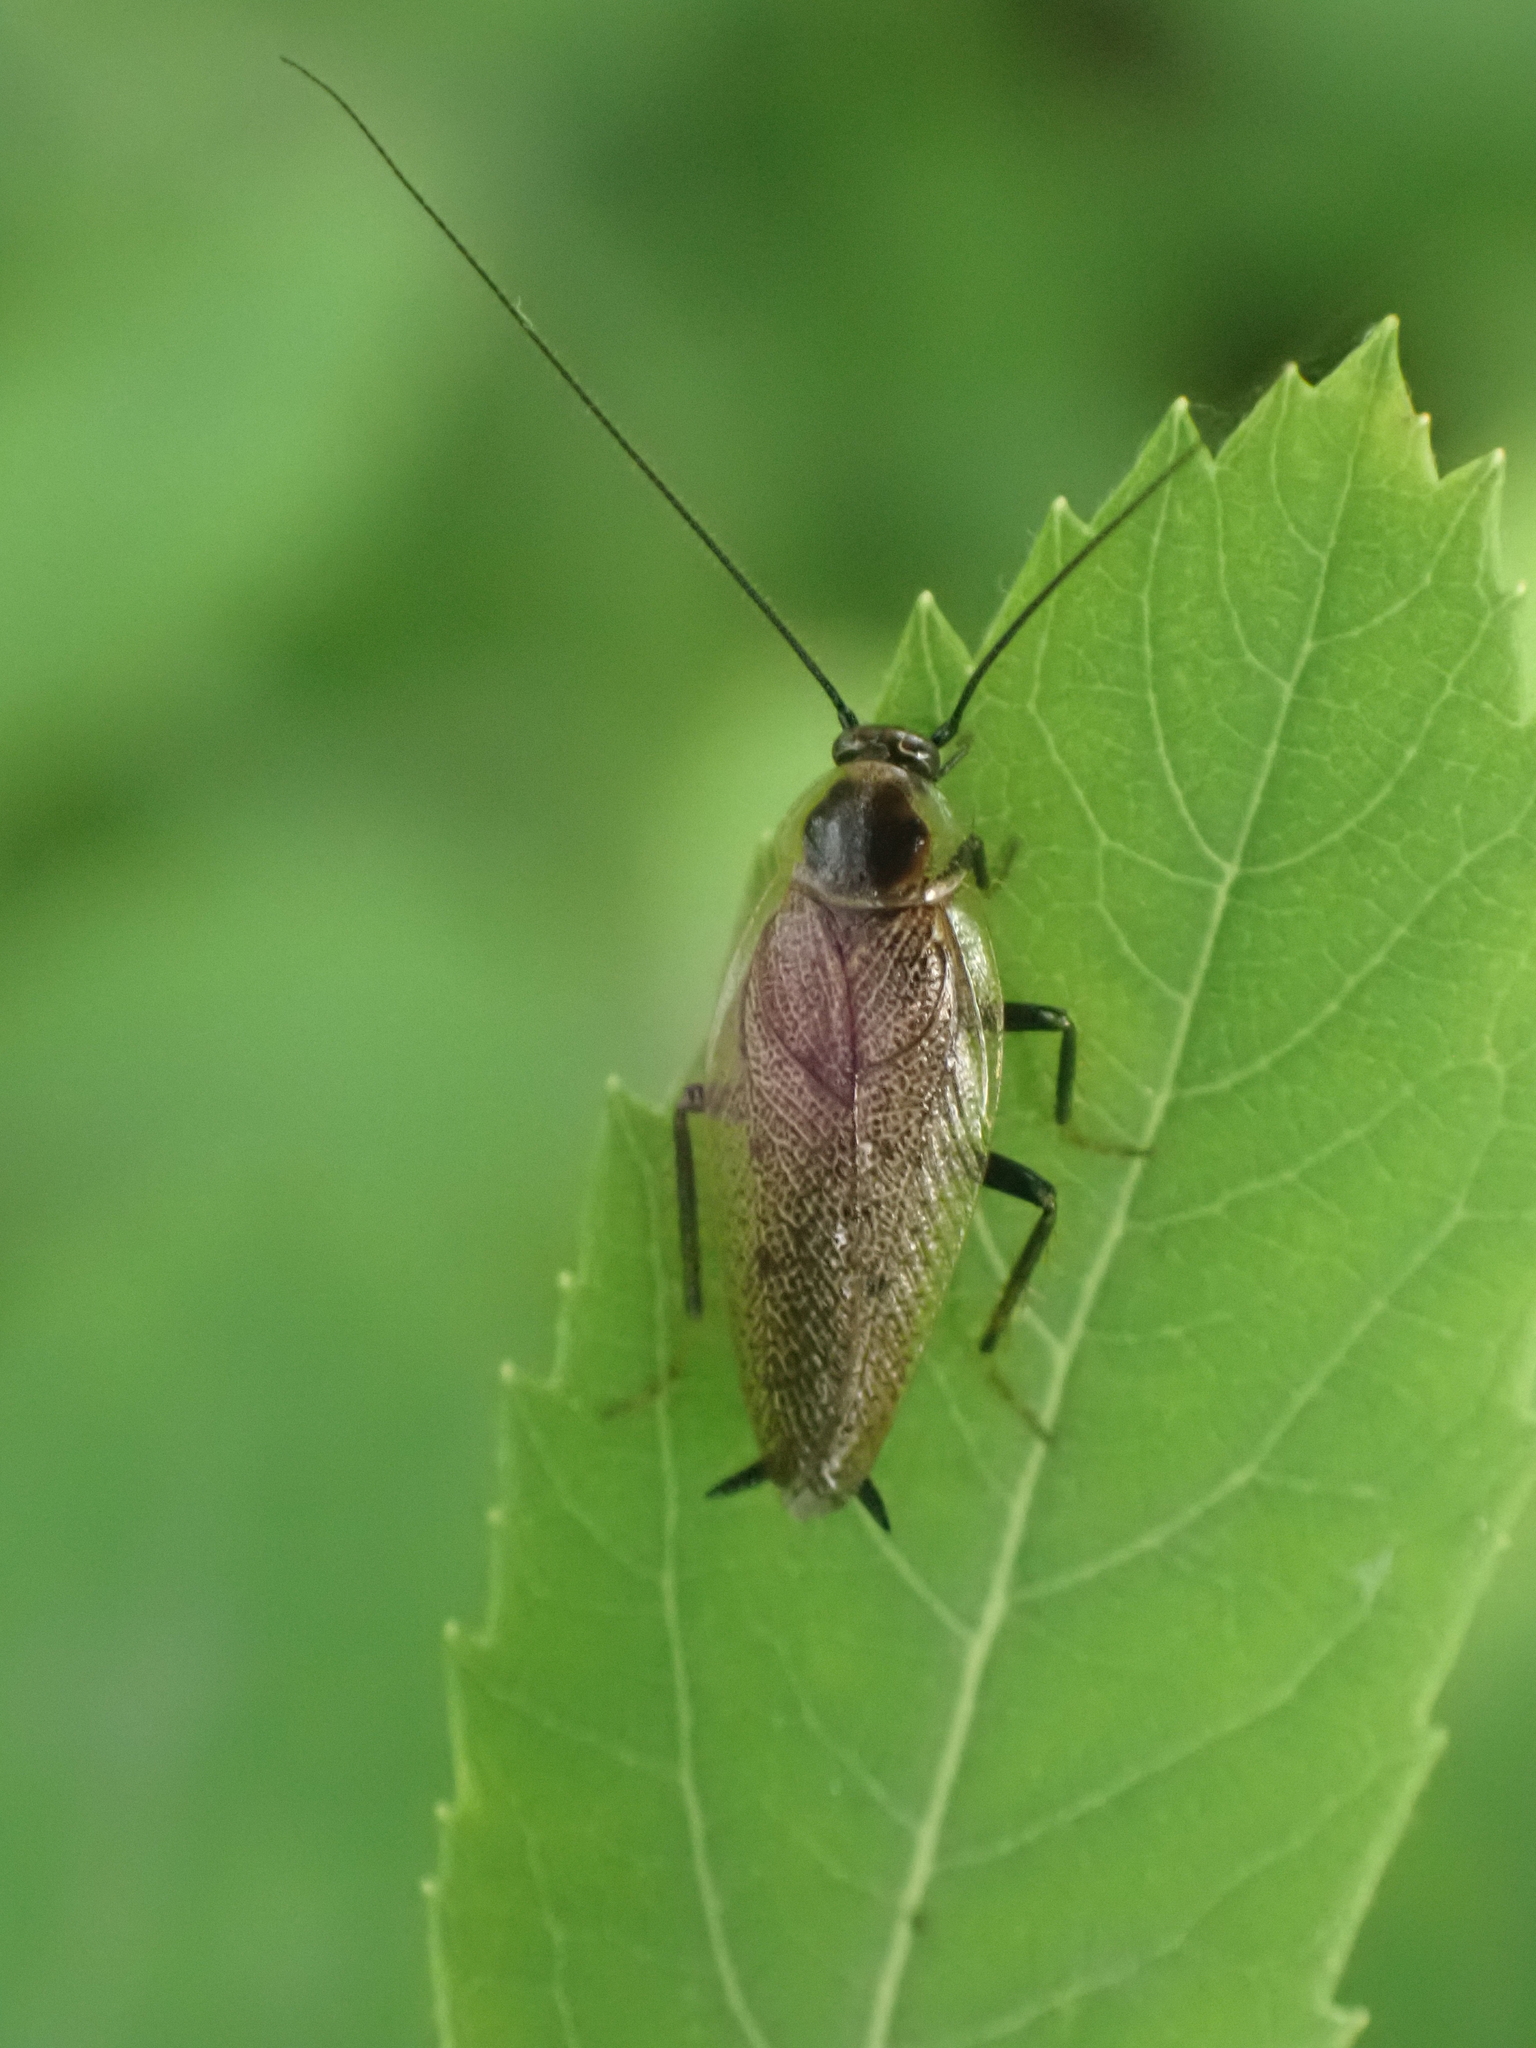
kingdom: Animalia
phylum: Arthropoda
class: Insecta
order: Blattodea
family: Ectobiidae
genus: Ectobius
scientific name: Ectobius lapponicus
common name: Dusky cockroach
